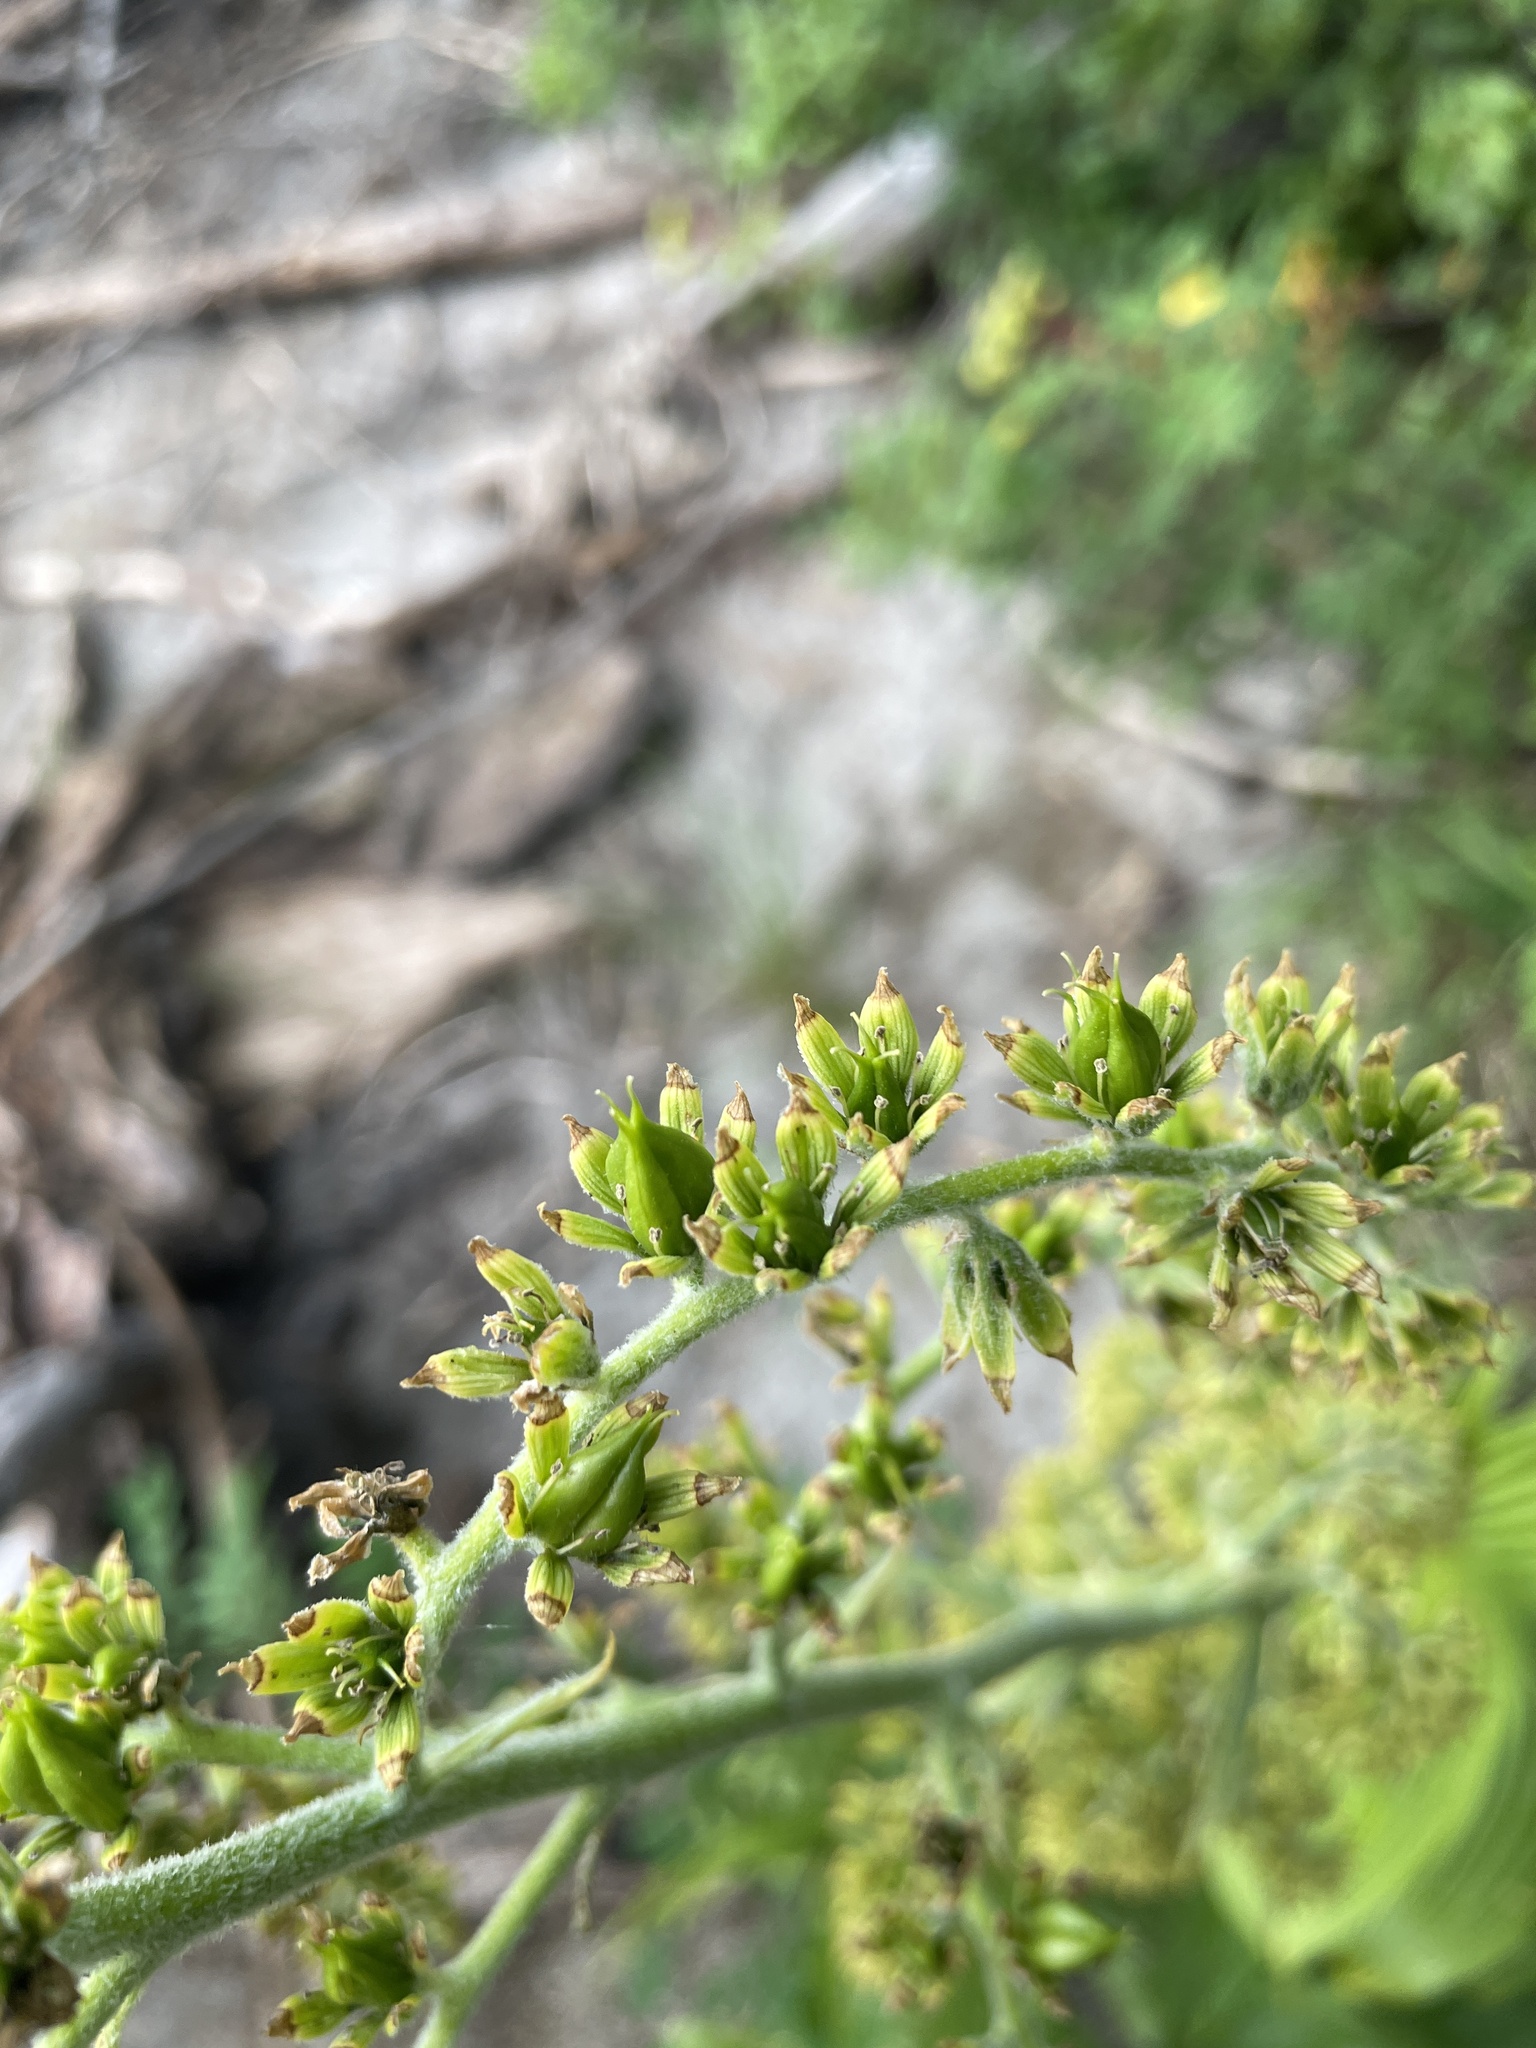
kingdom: Plantae
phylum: Tracheophyta
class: Liliopsida
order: Liliales
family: Melanthiaceae
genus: Veratrum
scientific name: Veratrum viride
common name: American false hellebore
